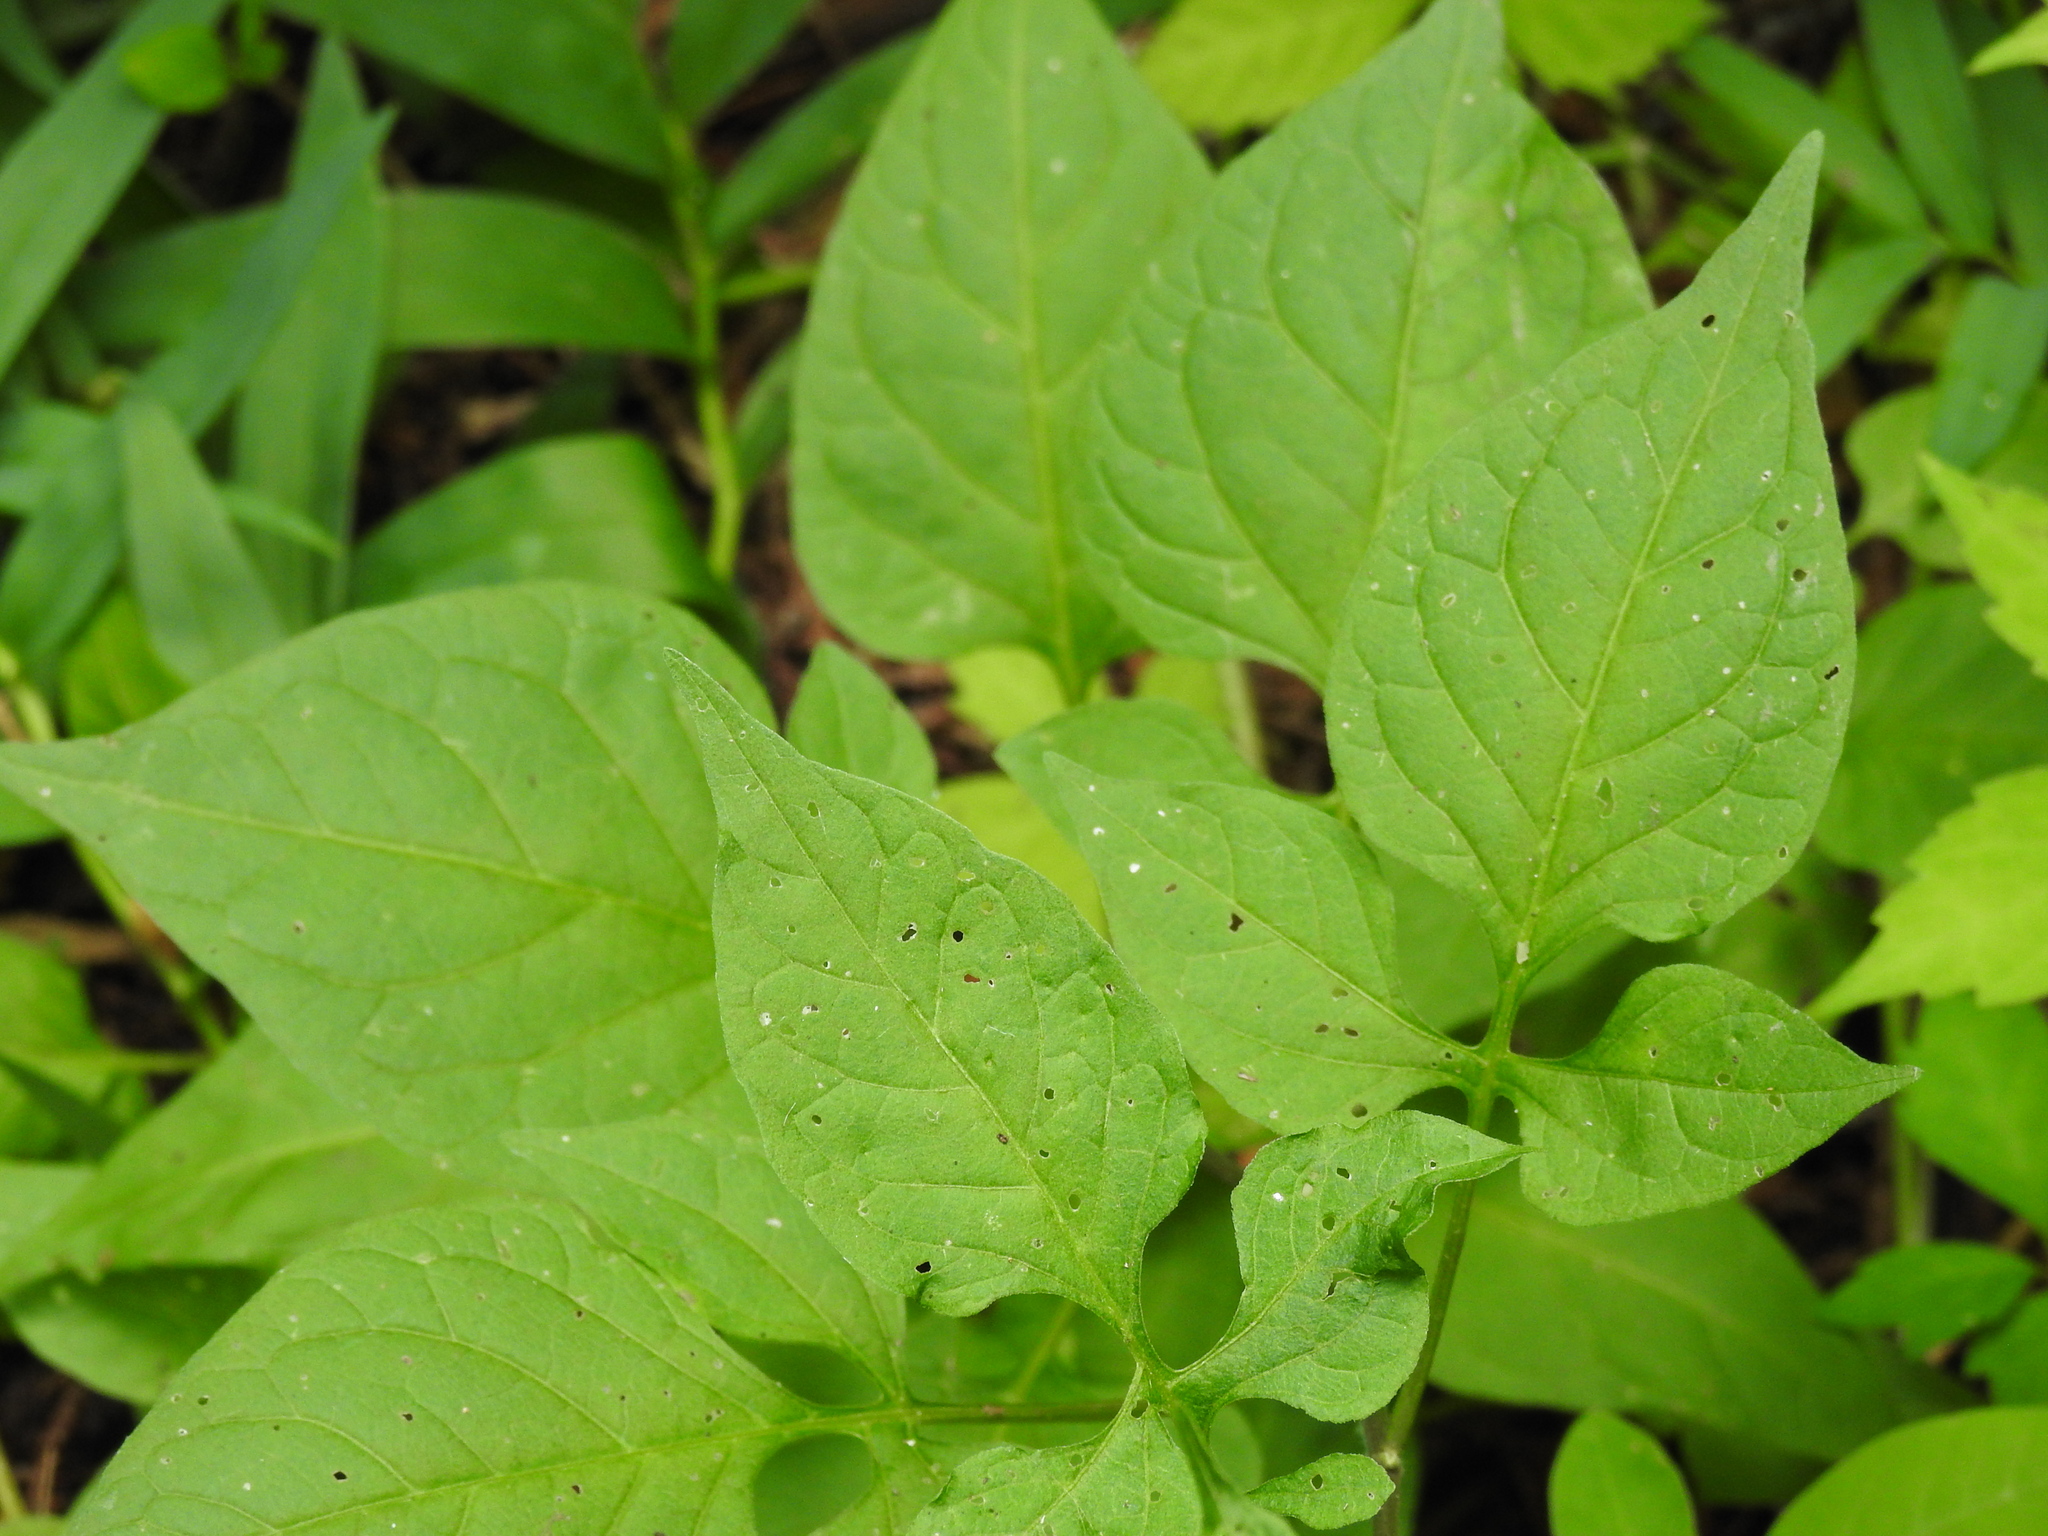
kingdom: Plantae
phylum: Tracheophyta
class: Magnoliopsida
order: Solanales
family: Solanaceae
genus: Solanum
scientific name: Solanum dulcamara
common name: Climbing nightshade
